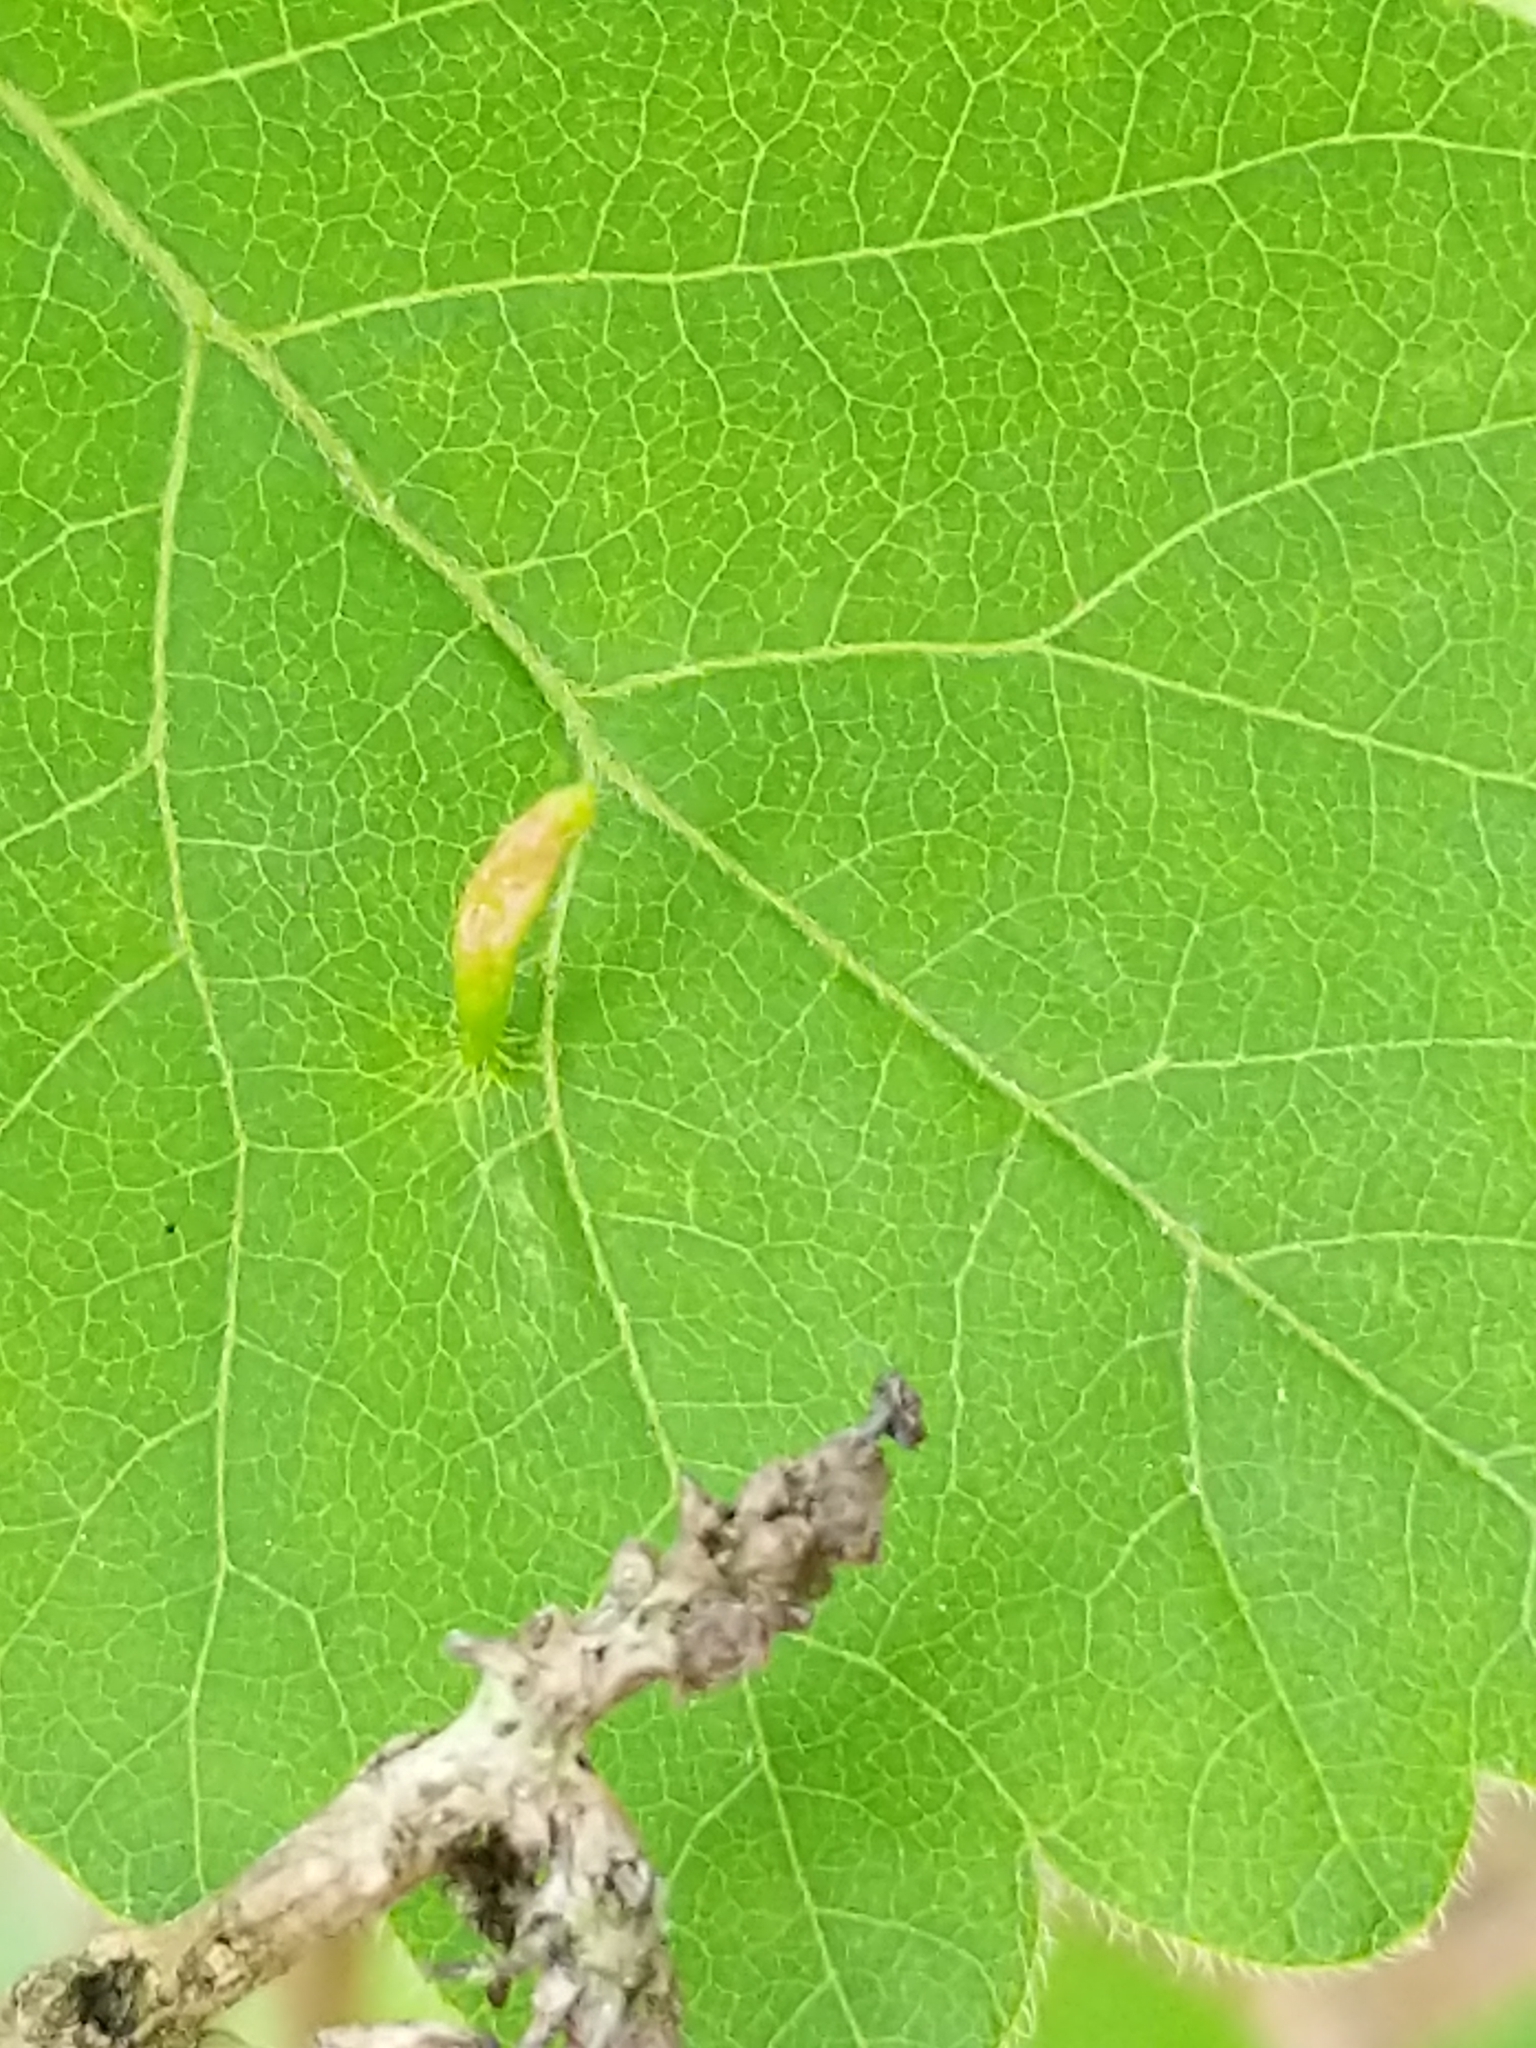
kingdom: Animalia
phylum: Arthropoda
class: Arachnida
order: Trombidiformes
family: Eriophyidae
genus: Aculops
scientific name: Aculops
